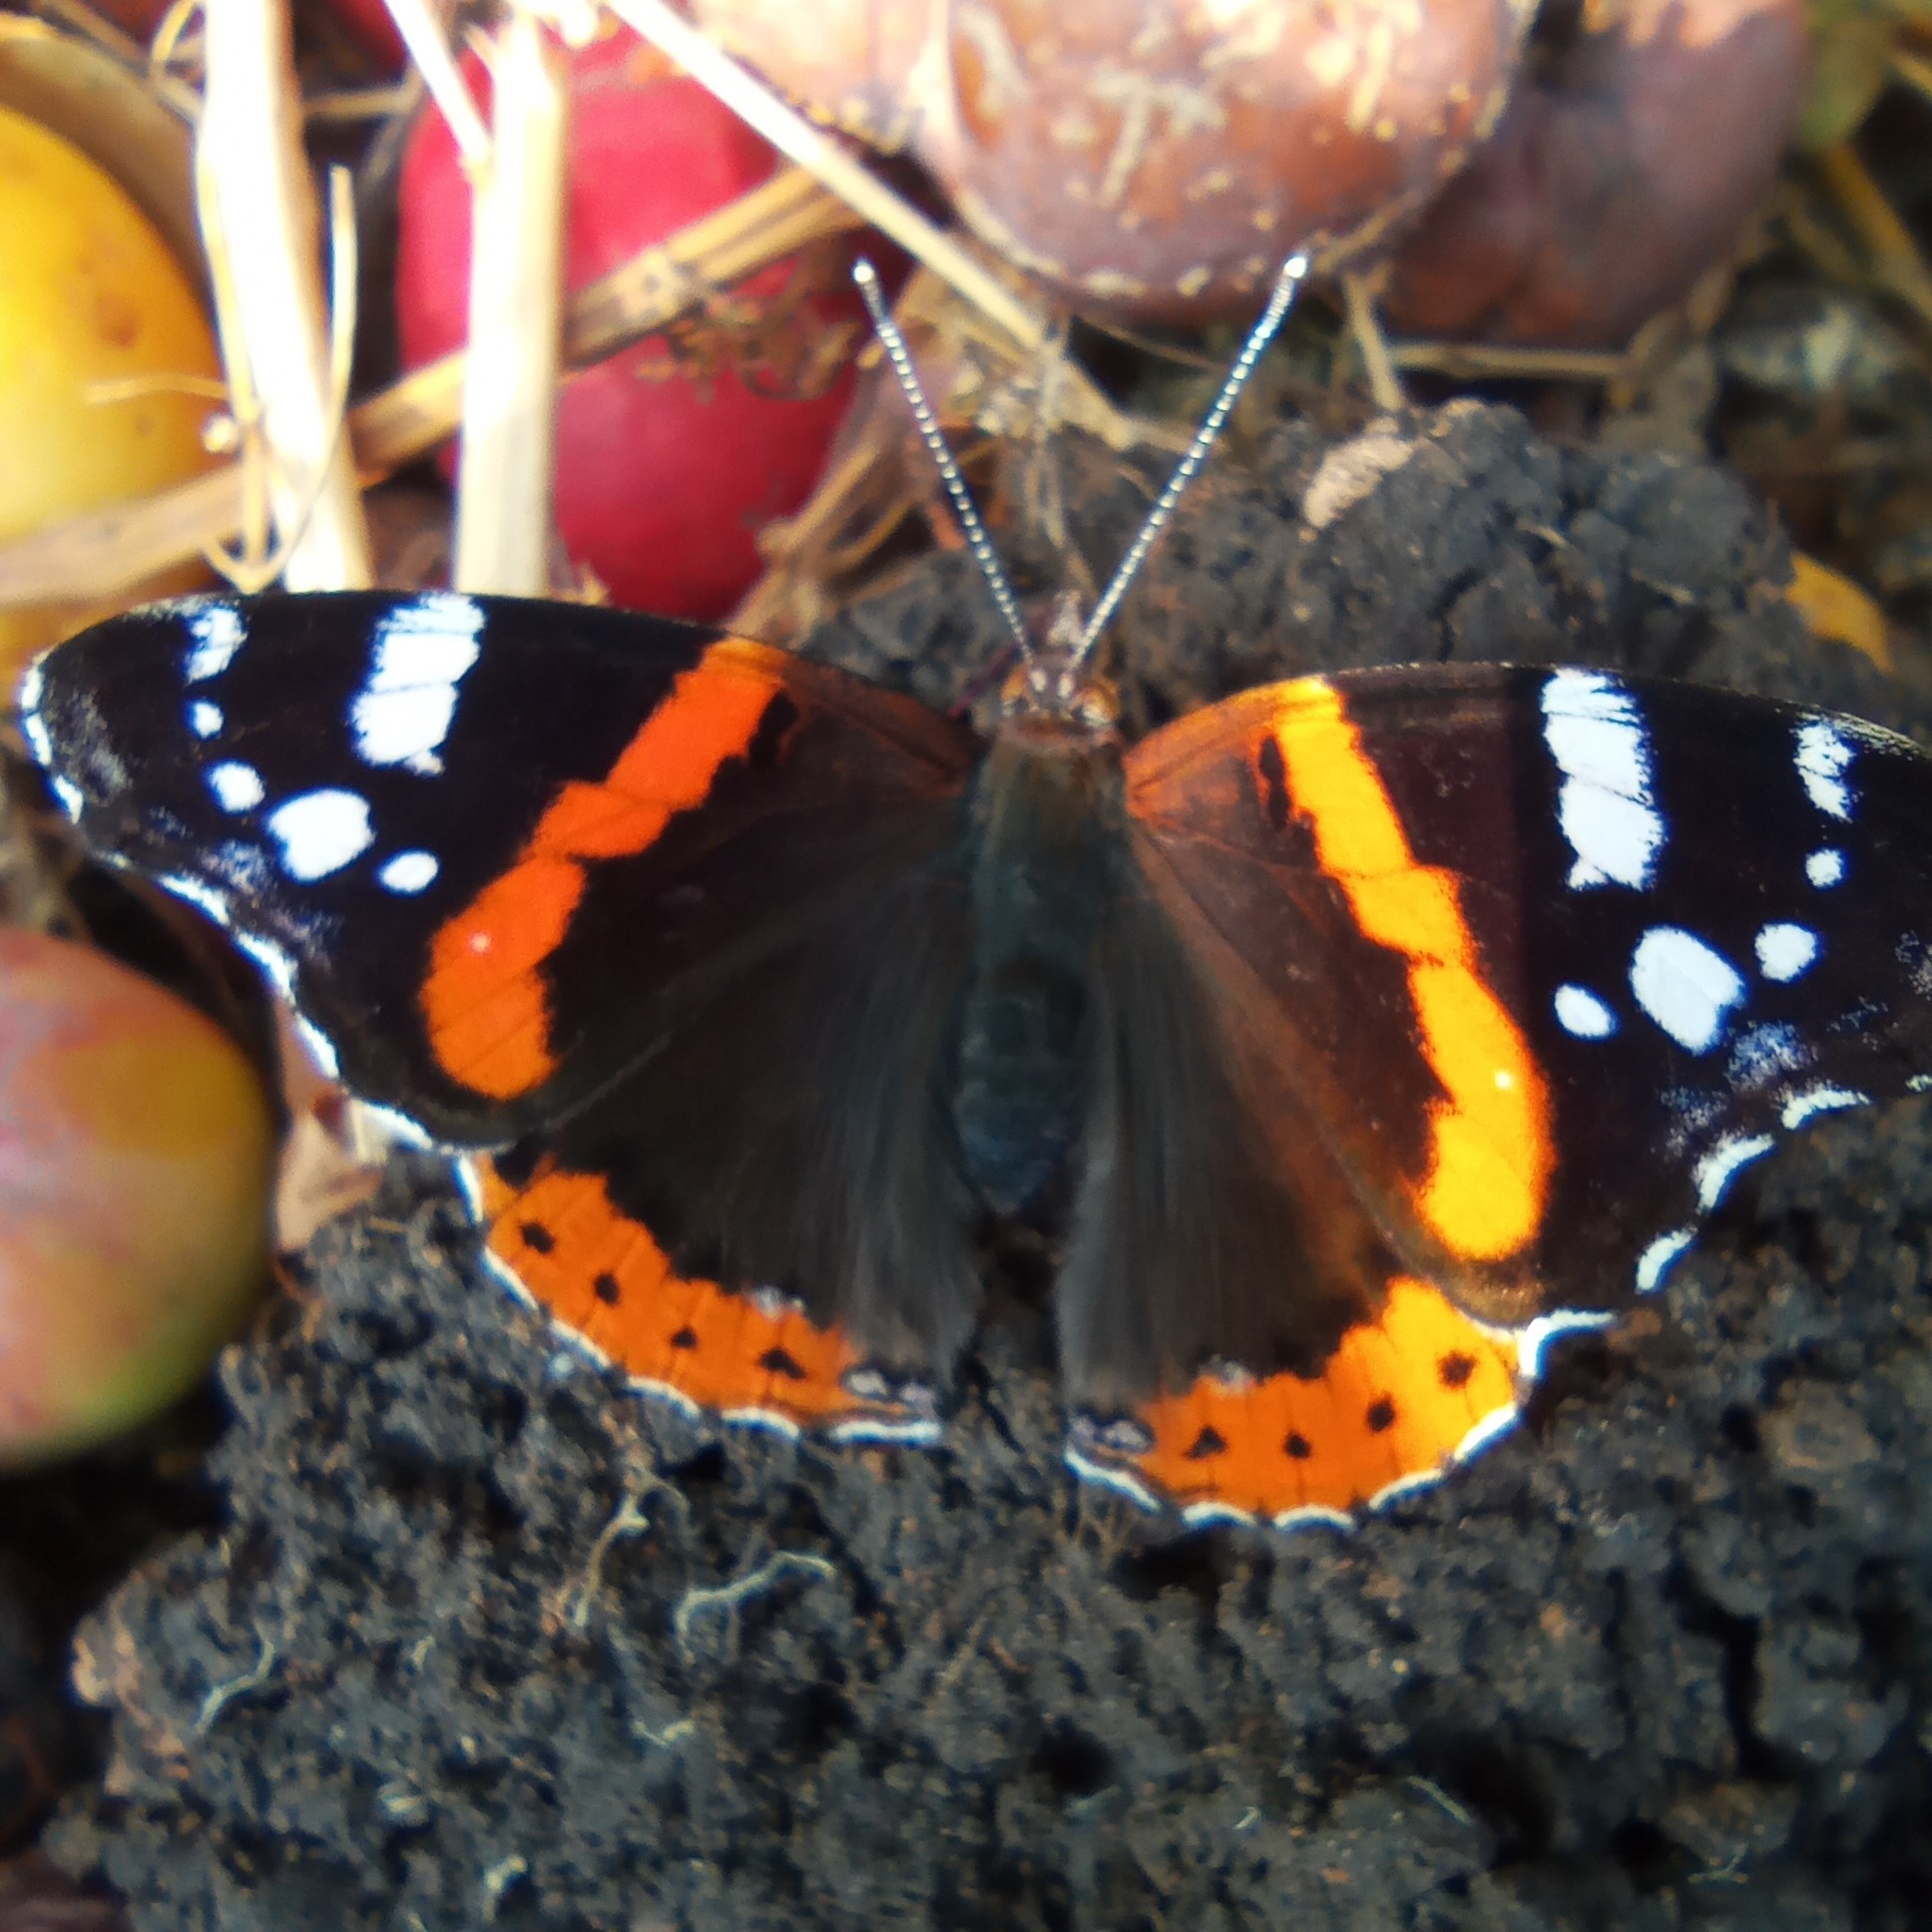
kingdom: Animalia
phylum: Arthropoda
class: Insecta
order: Lepidoptera
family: Nymphalidae
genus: Vanessa
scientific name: Vanessa atalanta
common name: Red admiral
